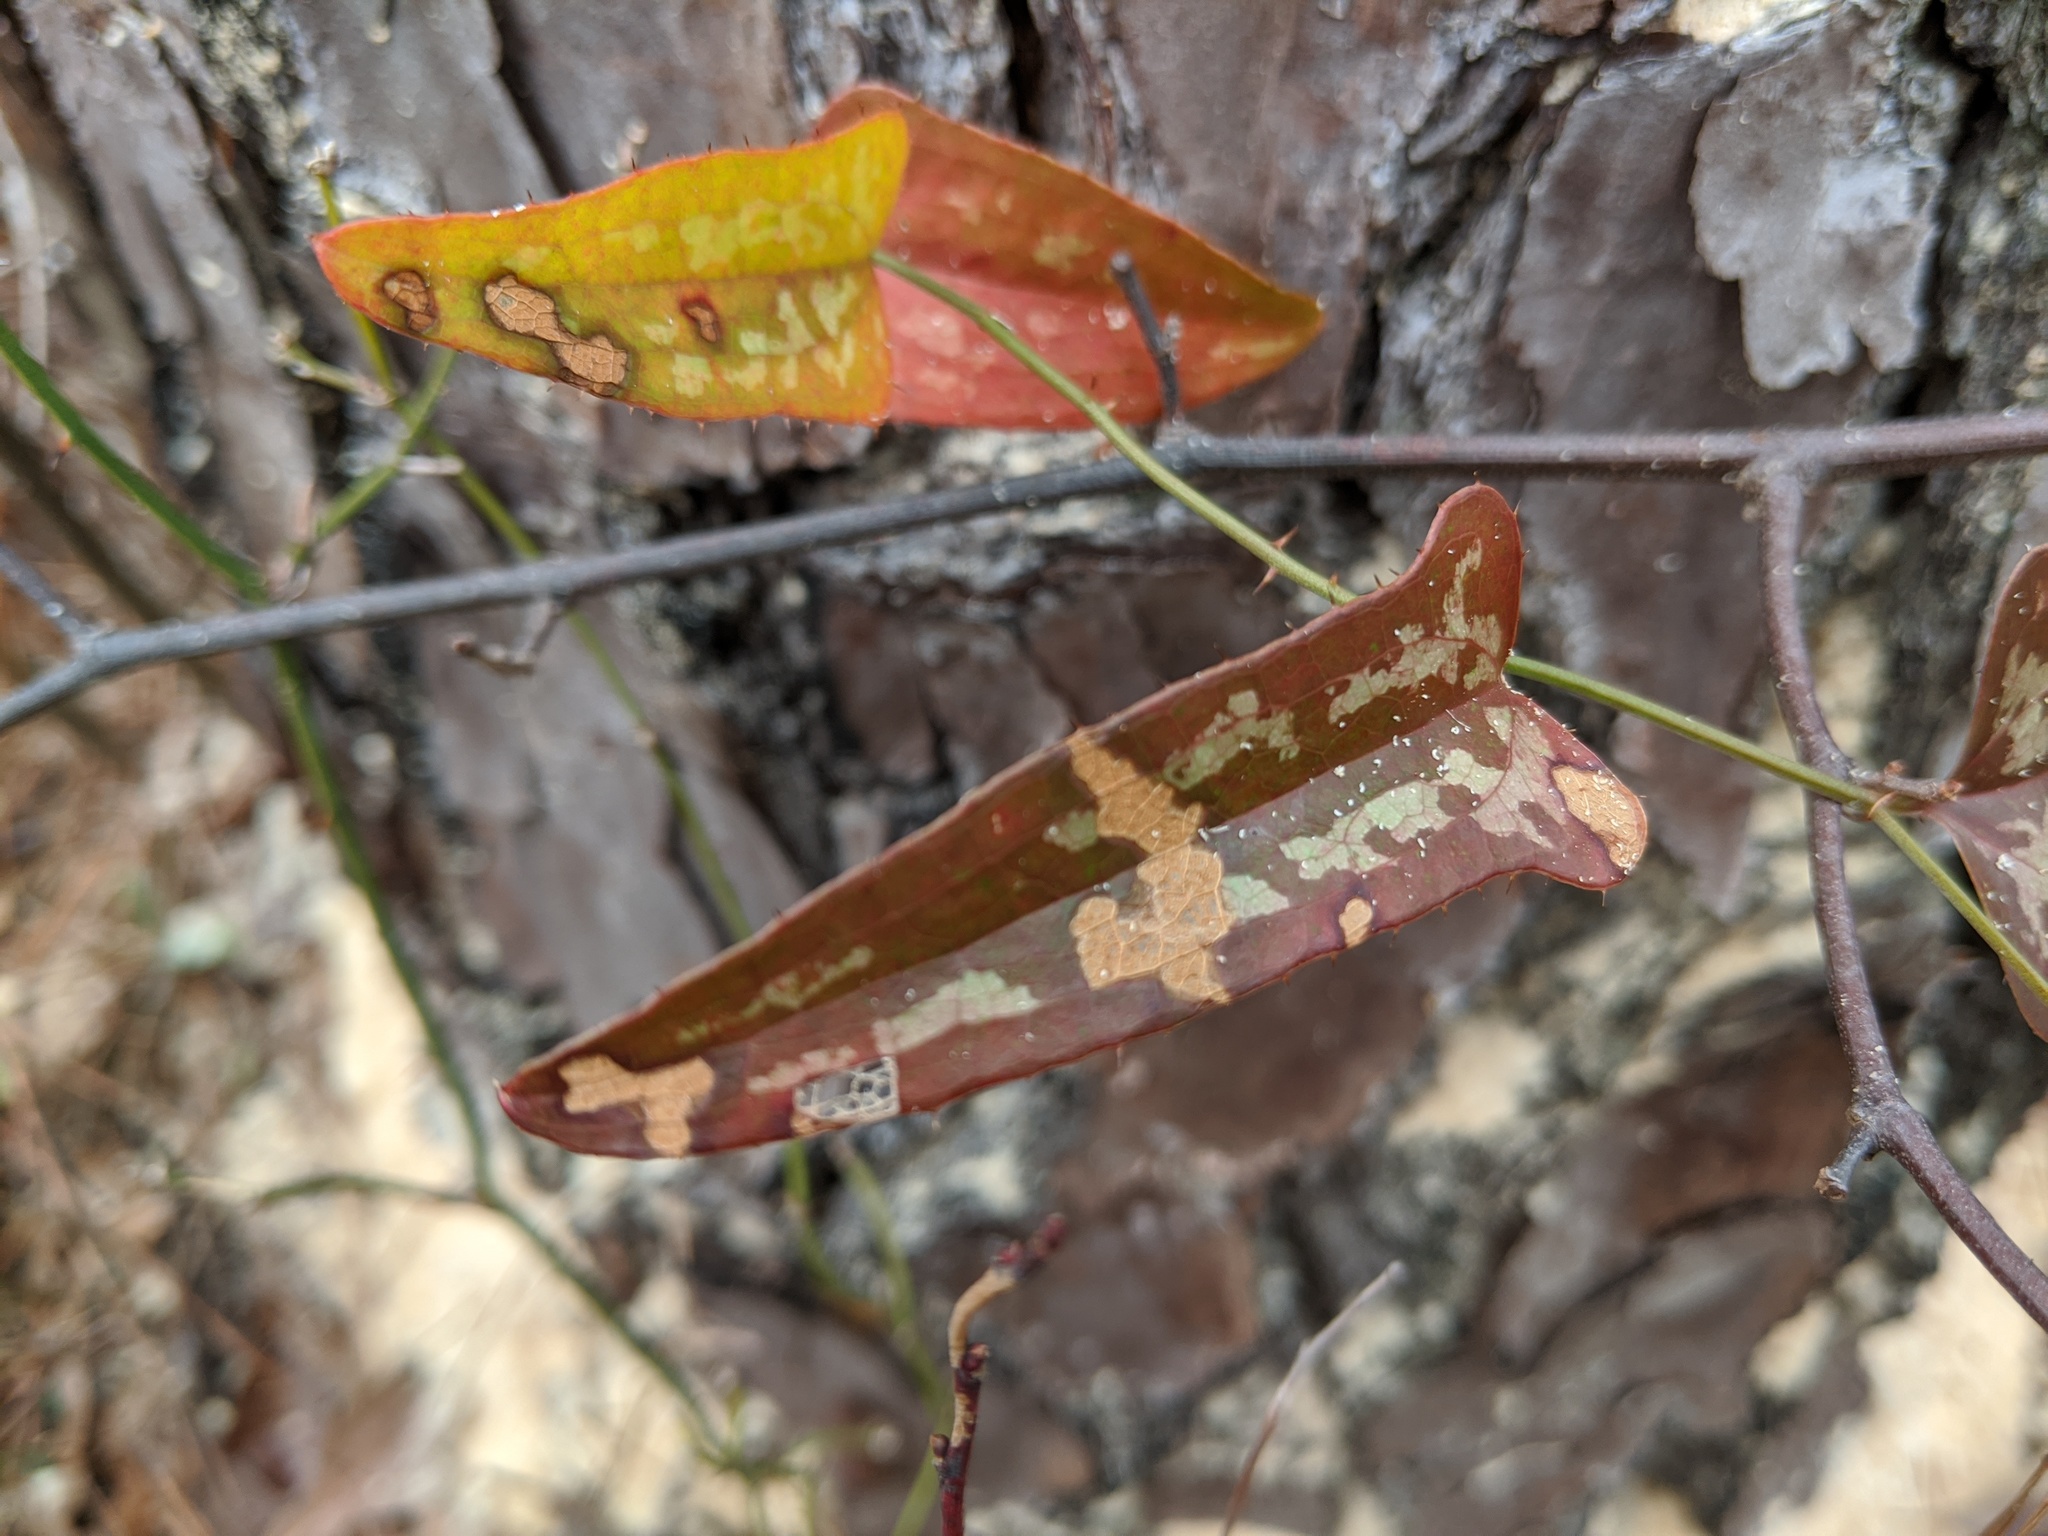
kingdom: Plantae
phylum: Tracheophyta
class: Liliopsida
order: Liliales
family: Smilacaceae
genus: Smilax
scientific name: Smilax bona-nox
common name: Catbrier
